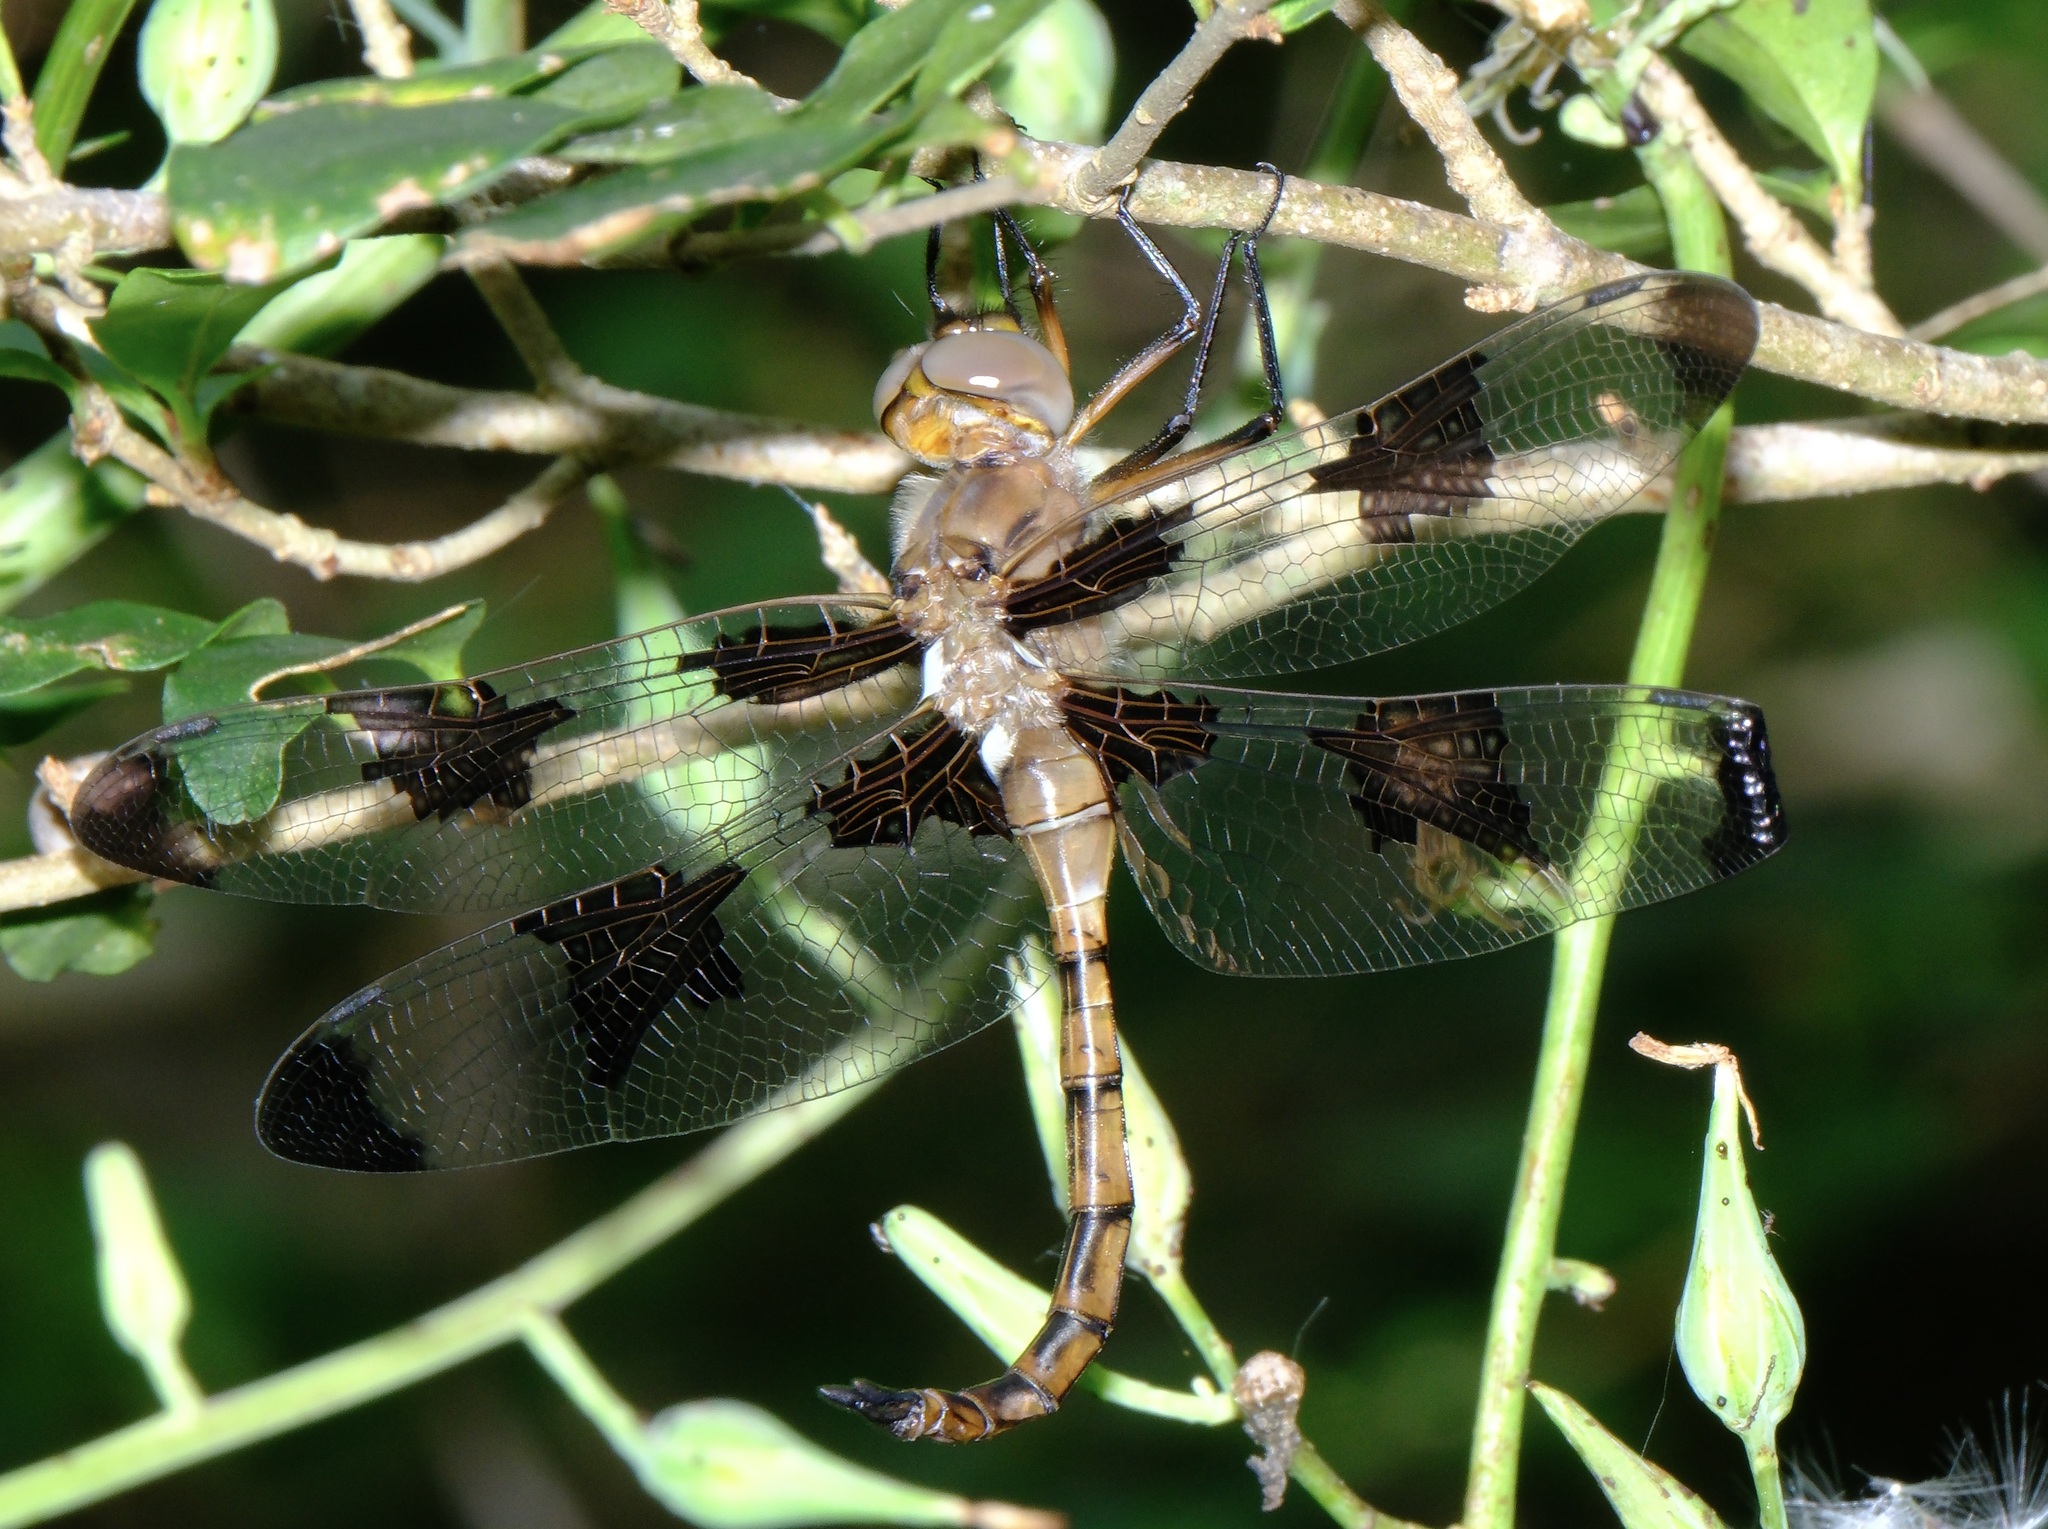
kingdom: Animalia
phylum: Arthropoda
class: Insecta
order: Odonata
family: Corduliidae
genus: Epitheca
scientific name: Epitheca princeps
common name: Prince baskettail
